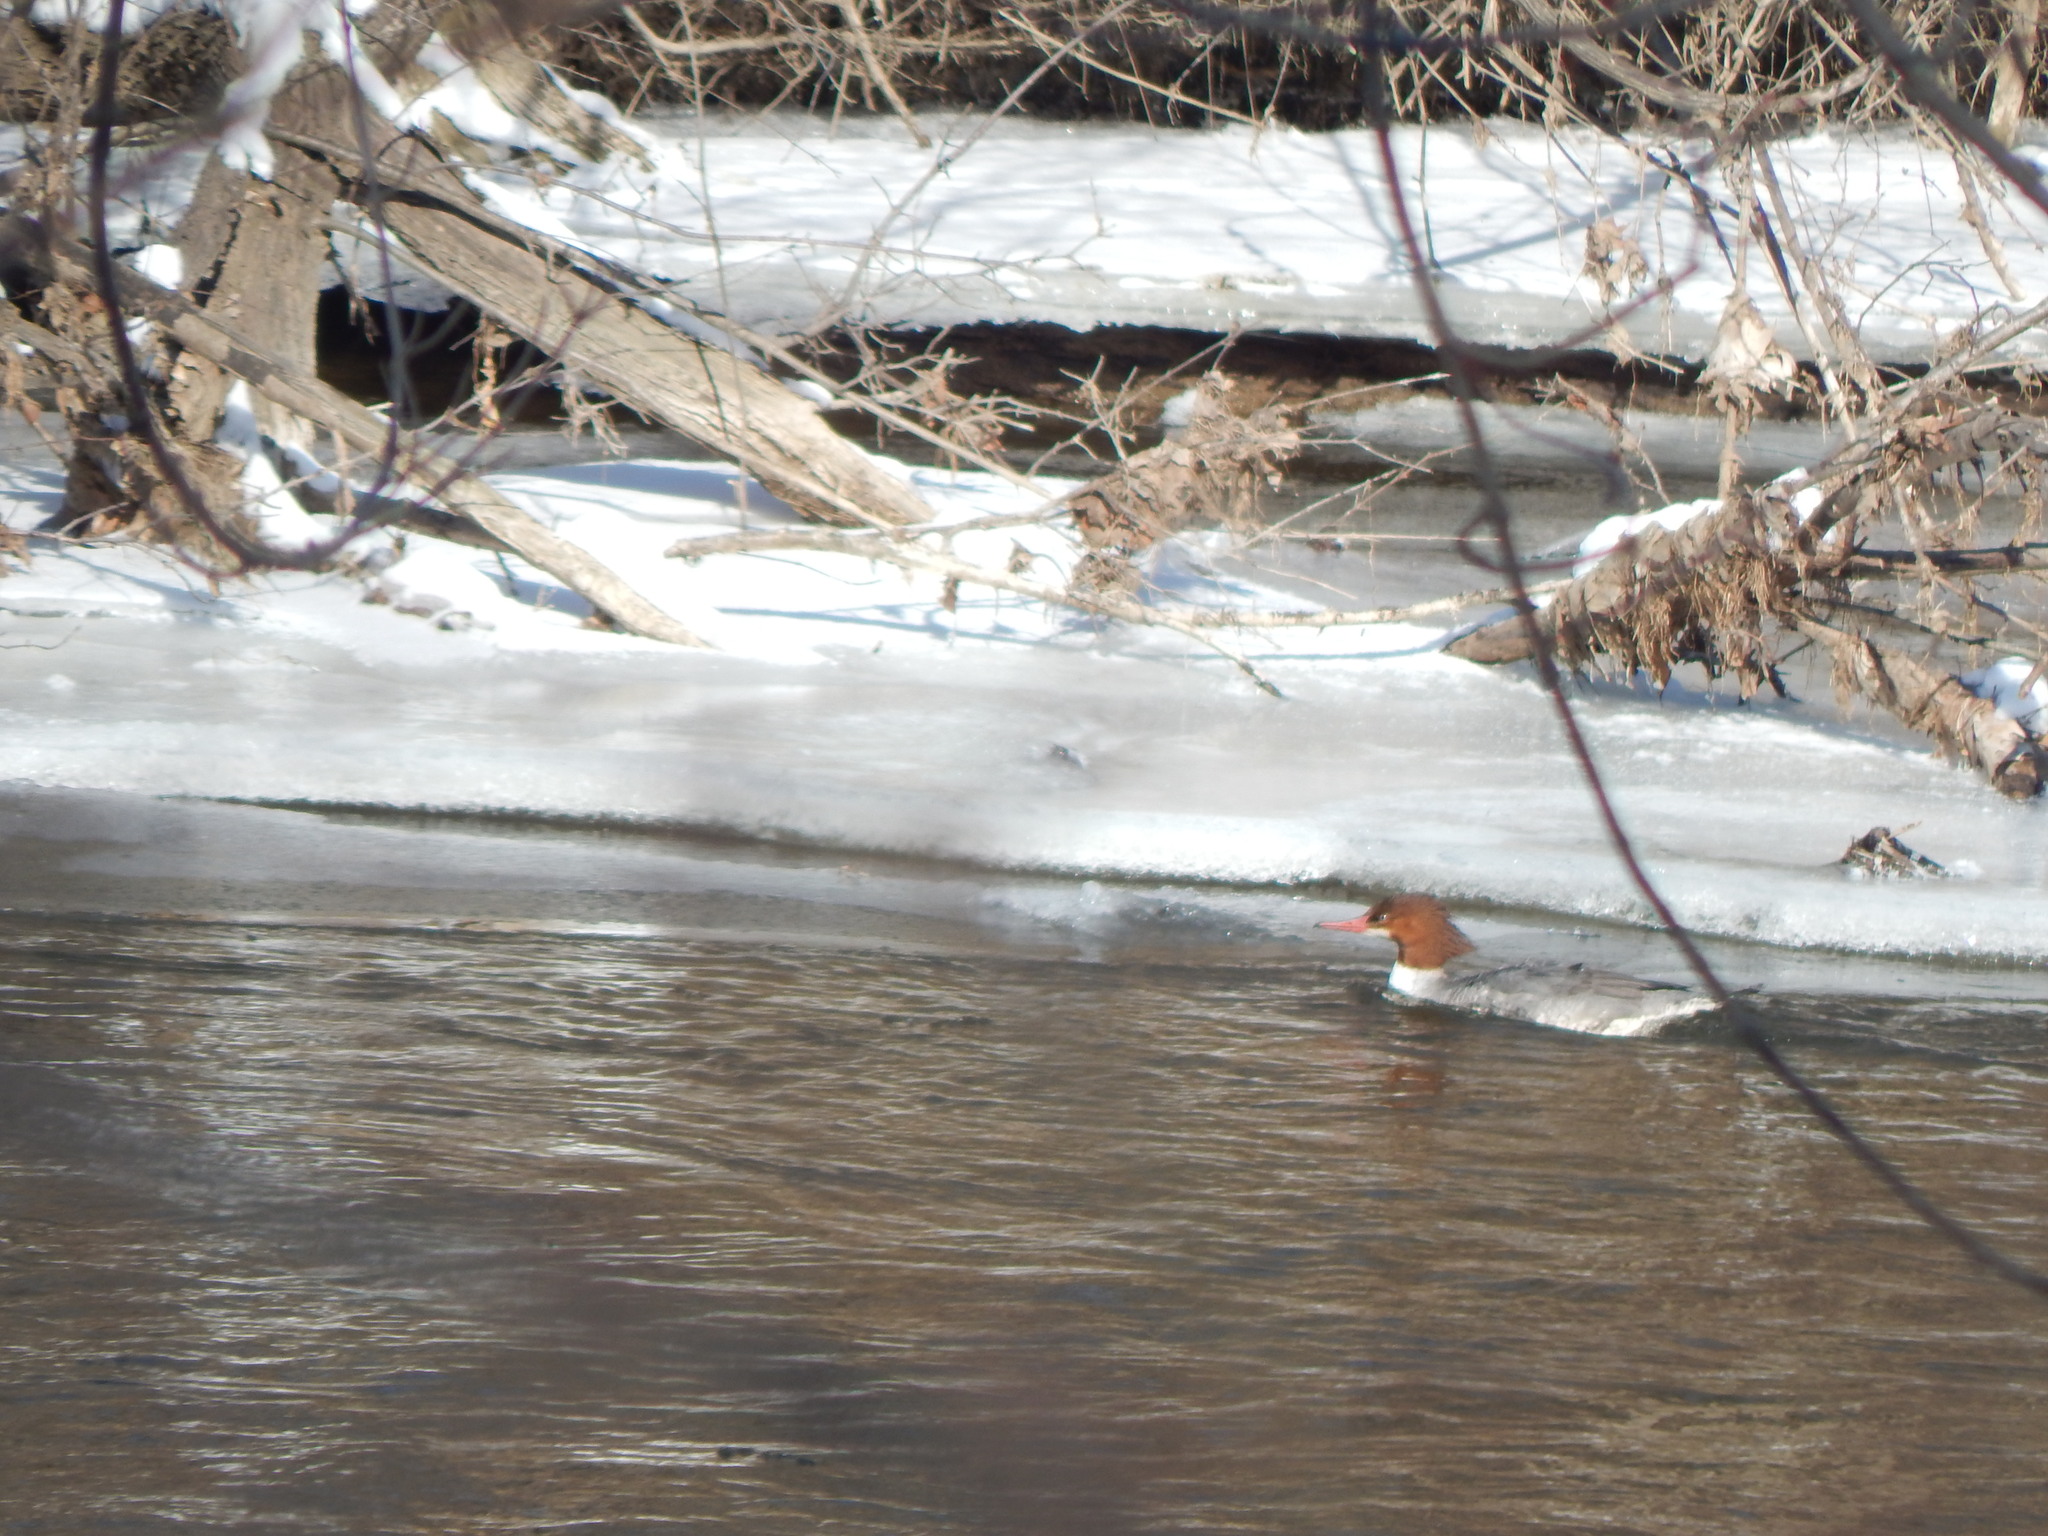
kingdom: Animalia
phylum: Chordata
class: Aves
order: Anseriformes
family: Anatidae
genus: Mergus
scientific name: Mergus merganser
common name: Common merganser
